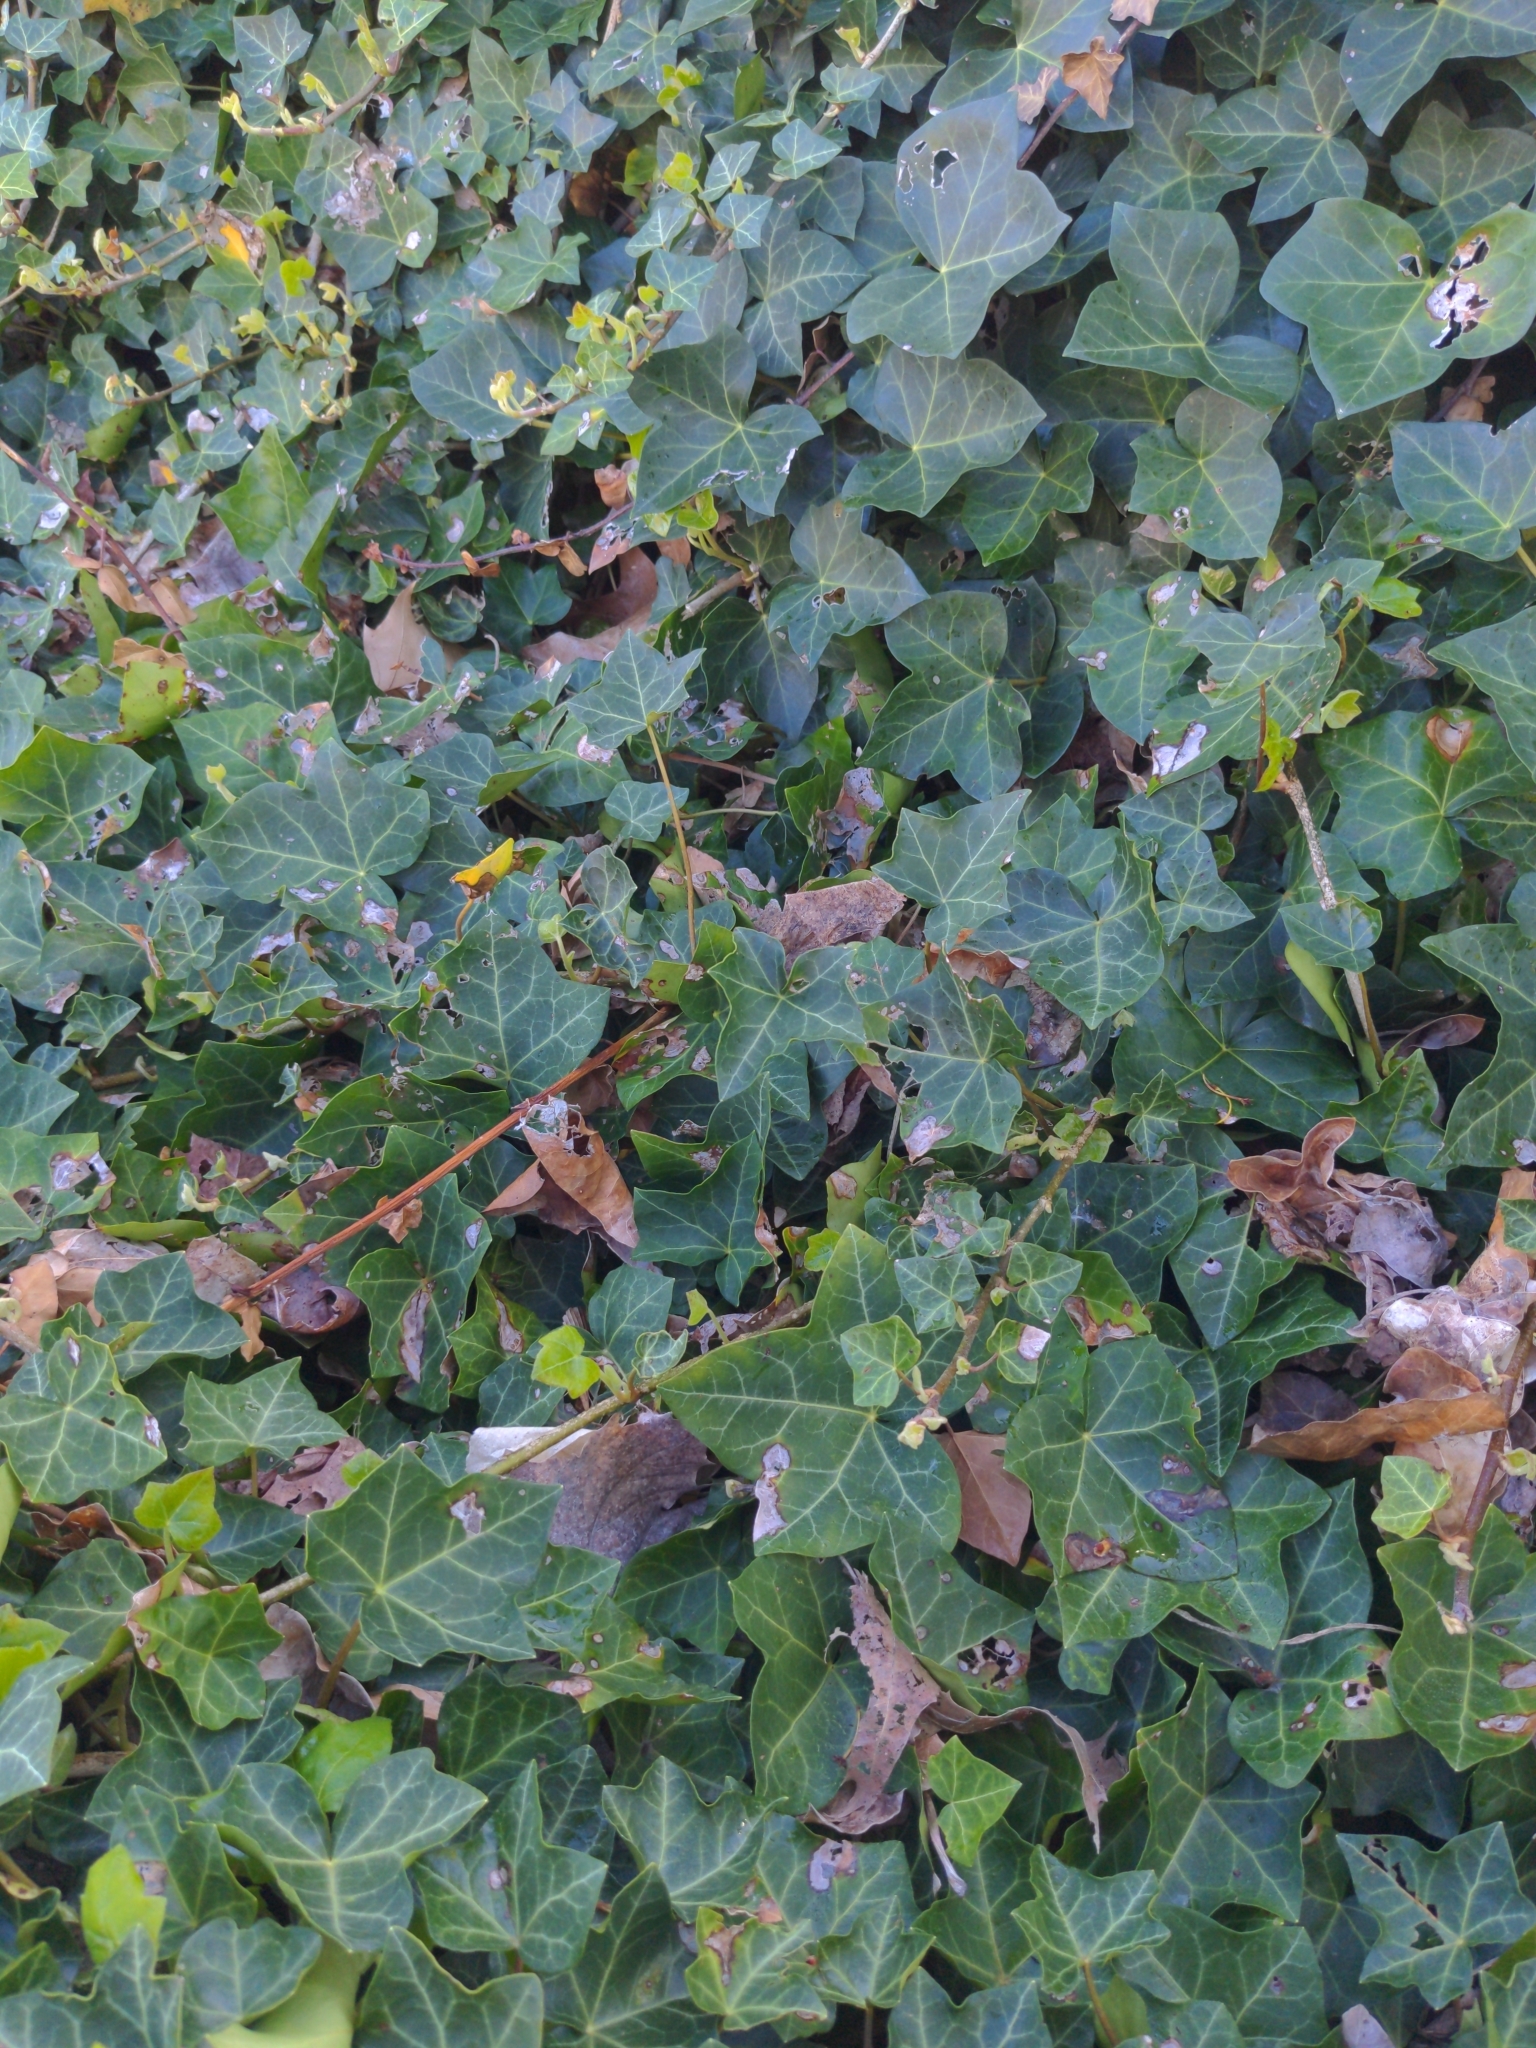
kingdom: Plantae
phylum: Tracheophyta
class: Magnoliopsida
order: Apiales
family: Araliaceae
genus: Hedera
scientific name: Hedera helix
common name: Ivy
